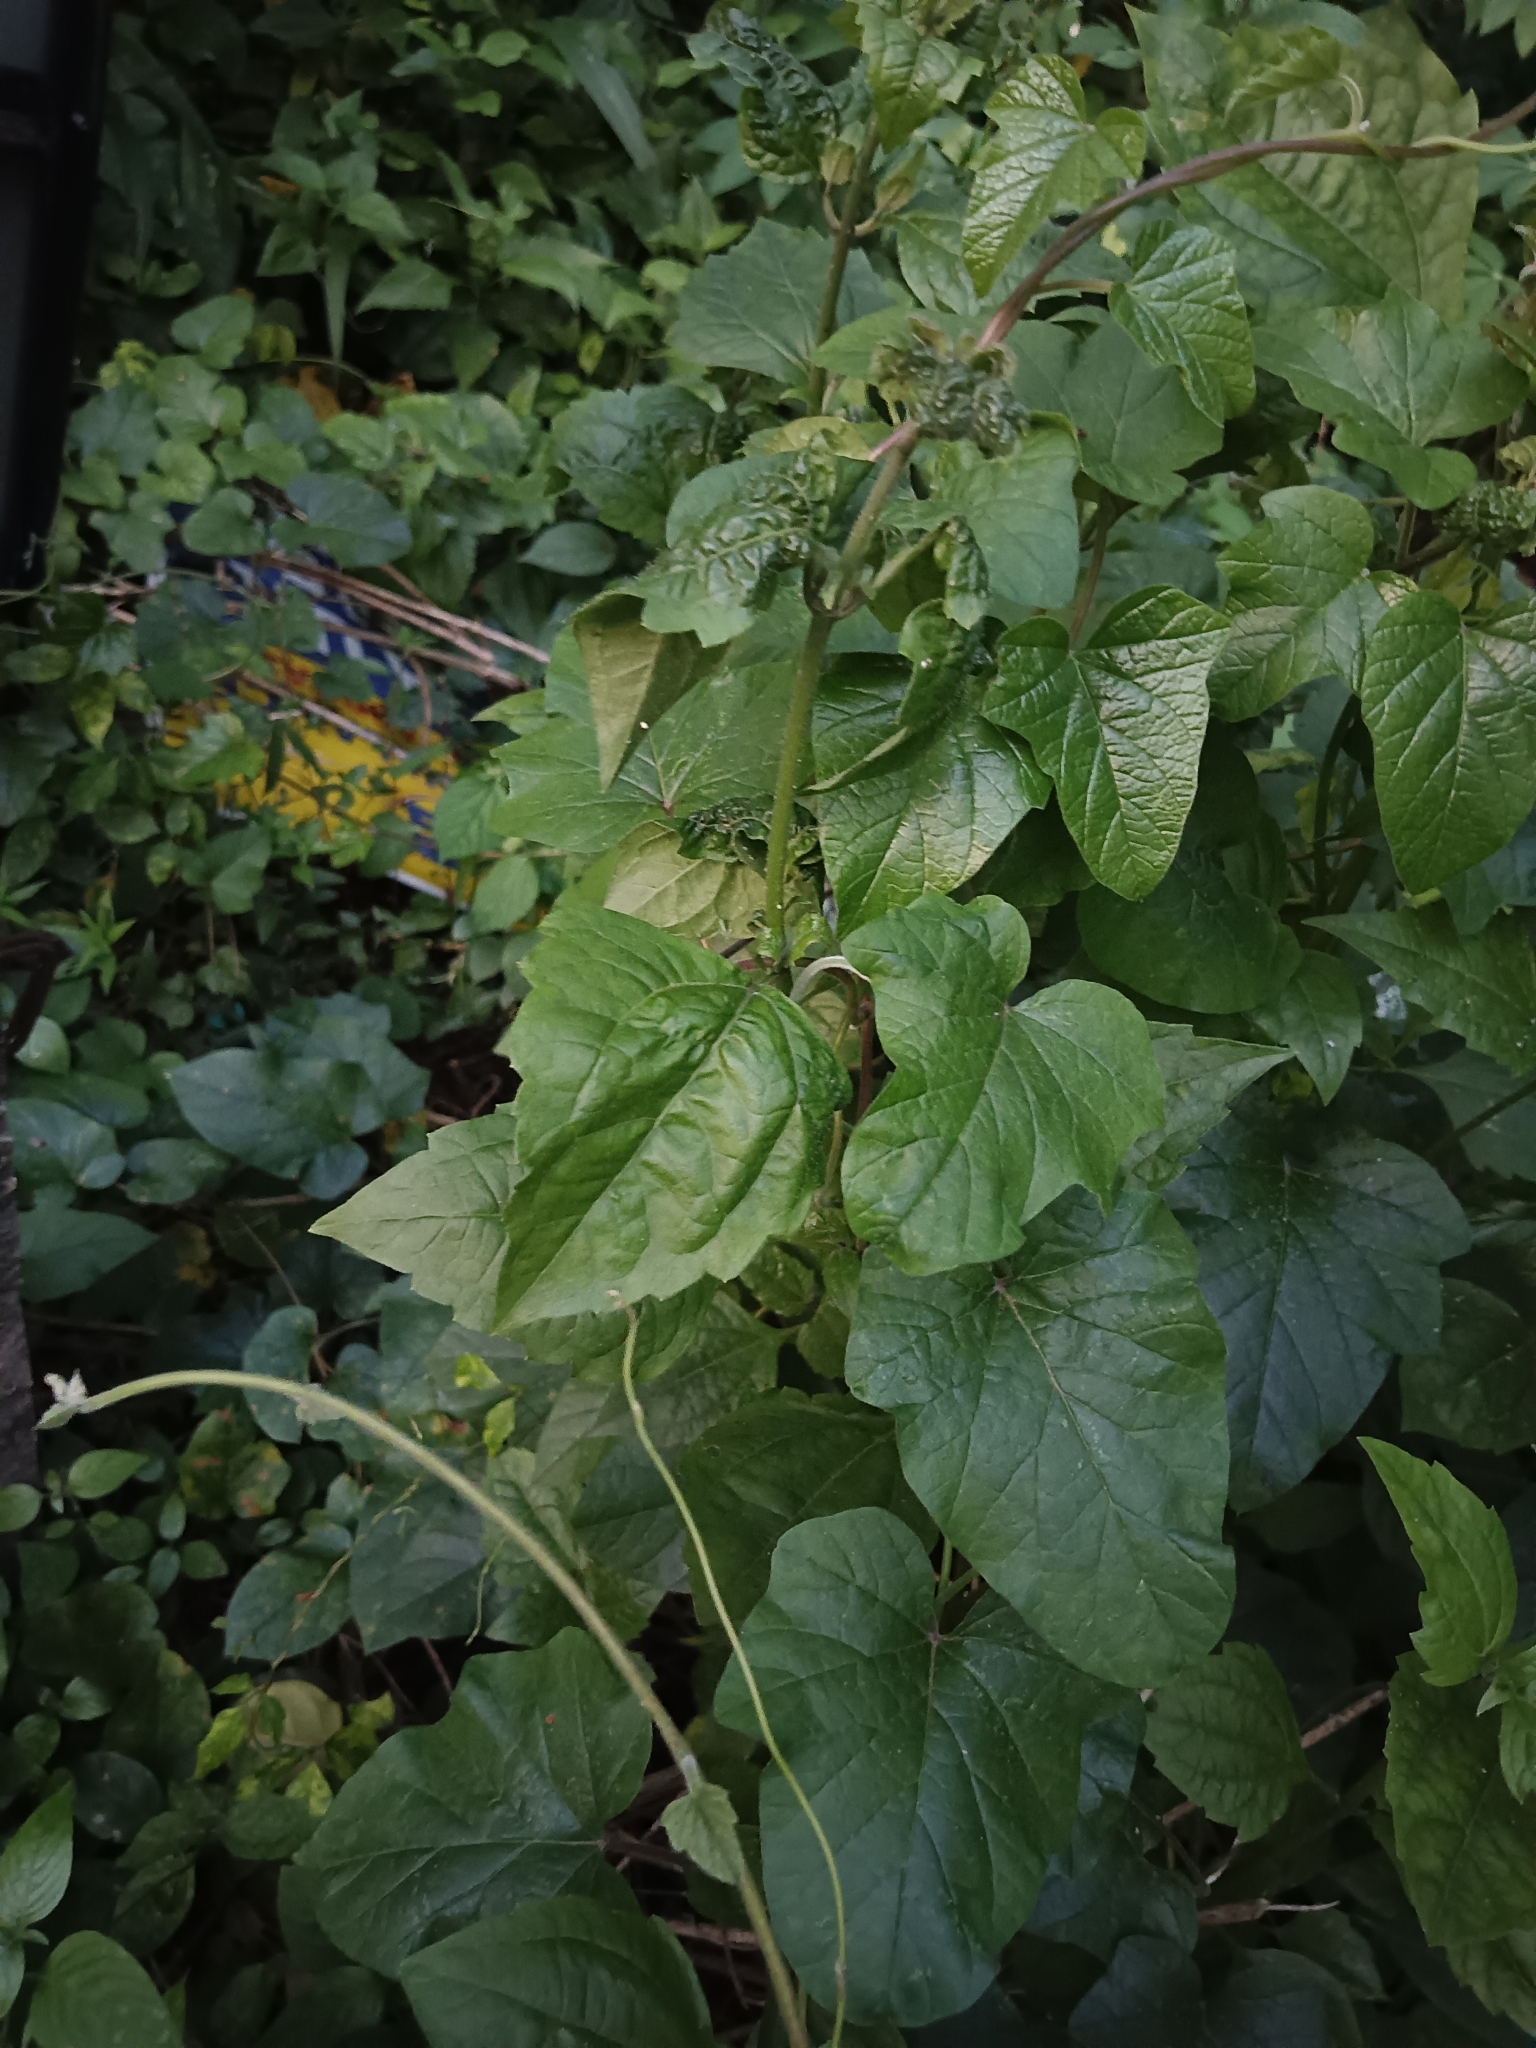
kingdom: Plantae
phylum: Tracheophyta
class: Magnoliopsida
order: Asterales
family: Asteraceae
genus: Mikania
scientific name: Mikania micrantha
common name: Mile-a-minute
